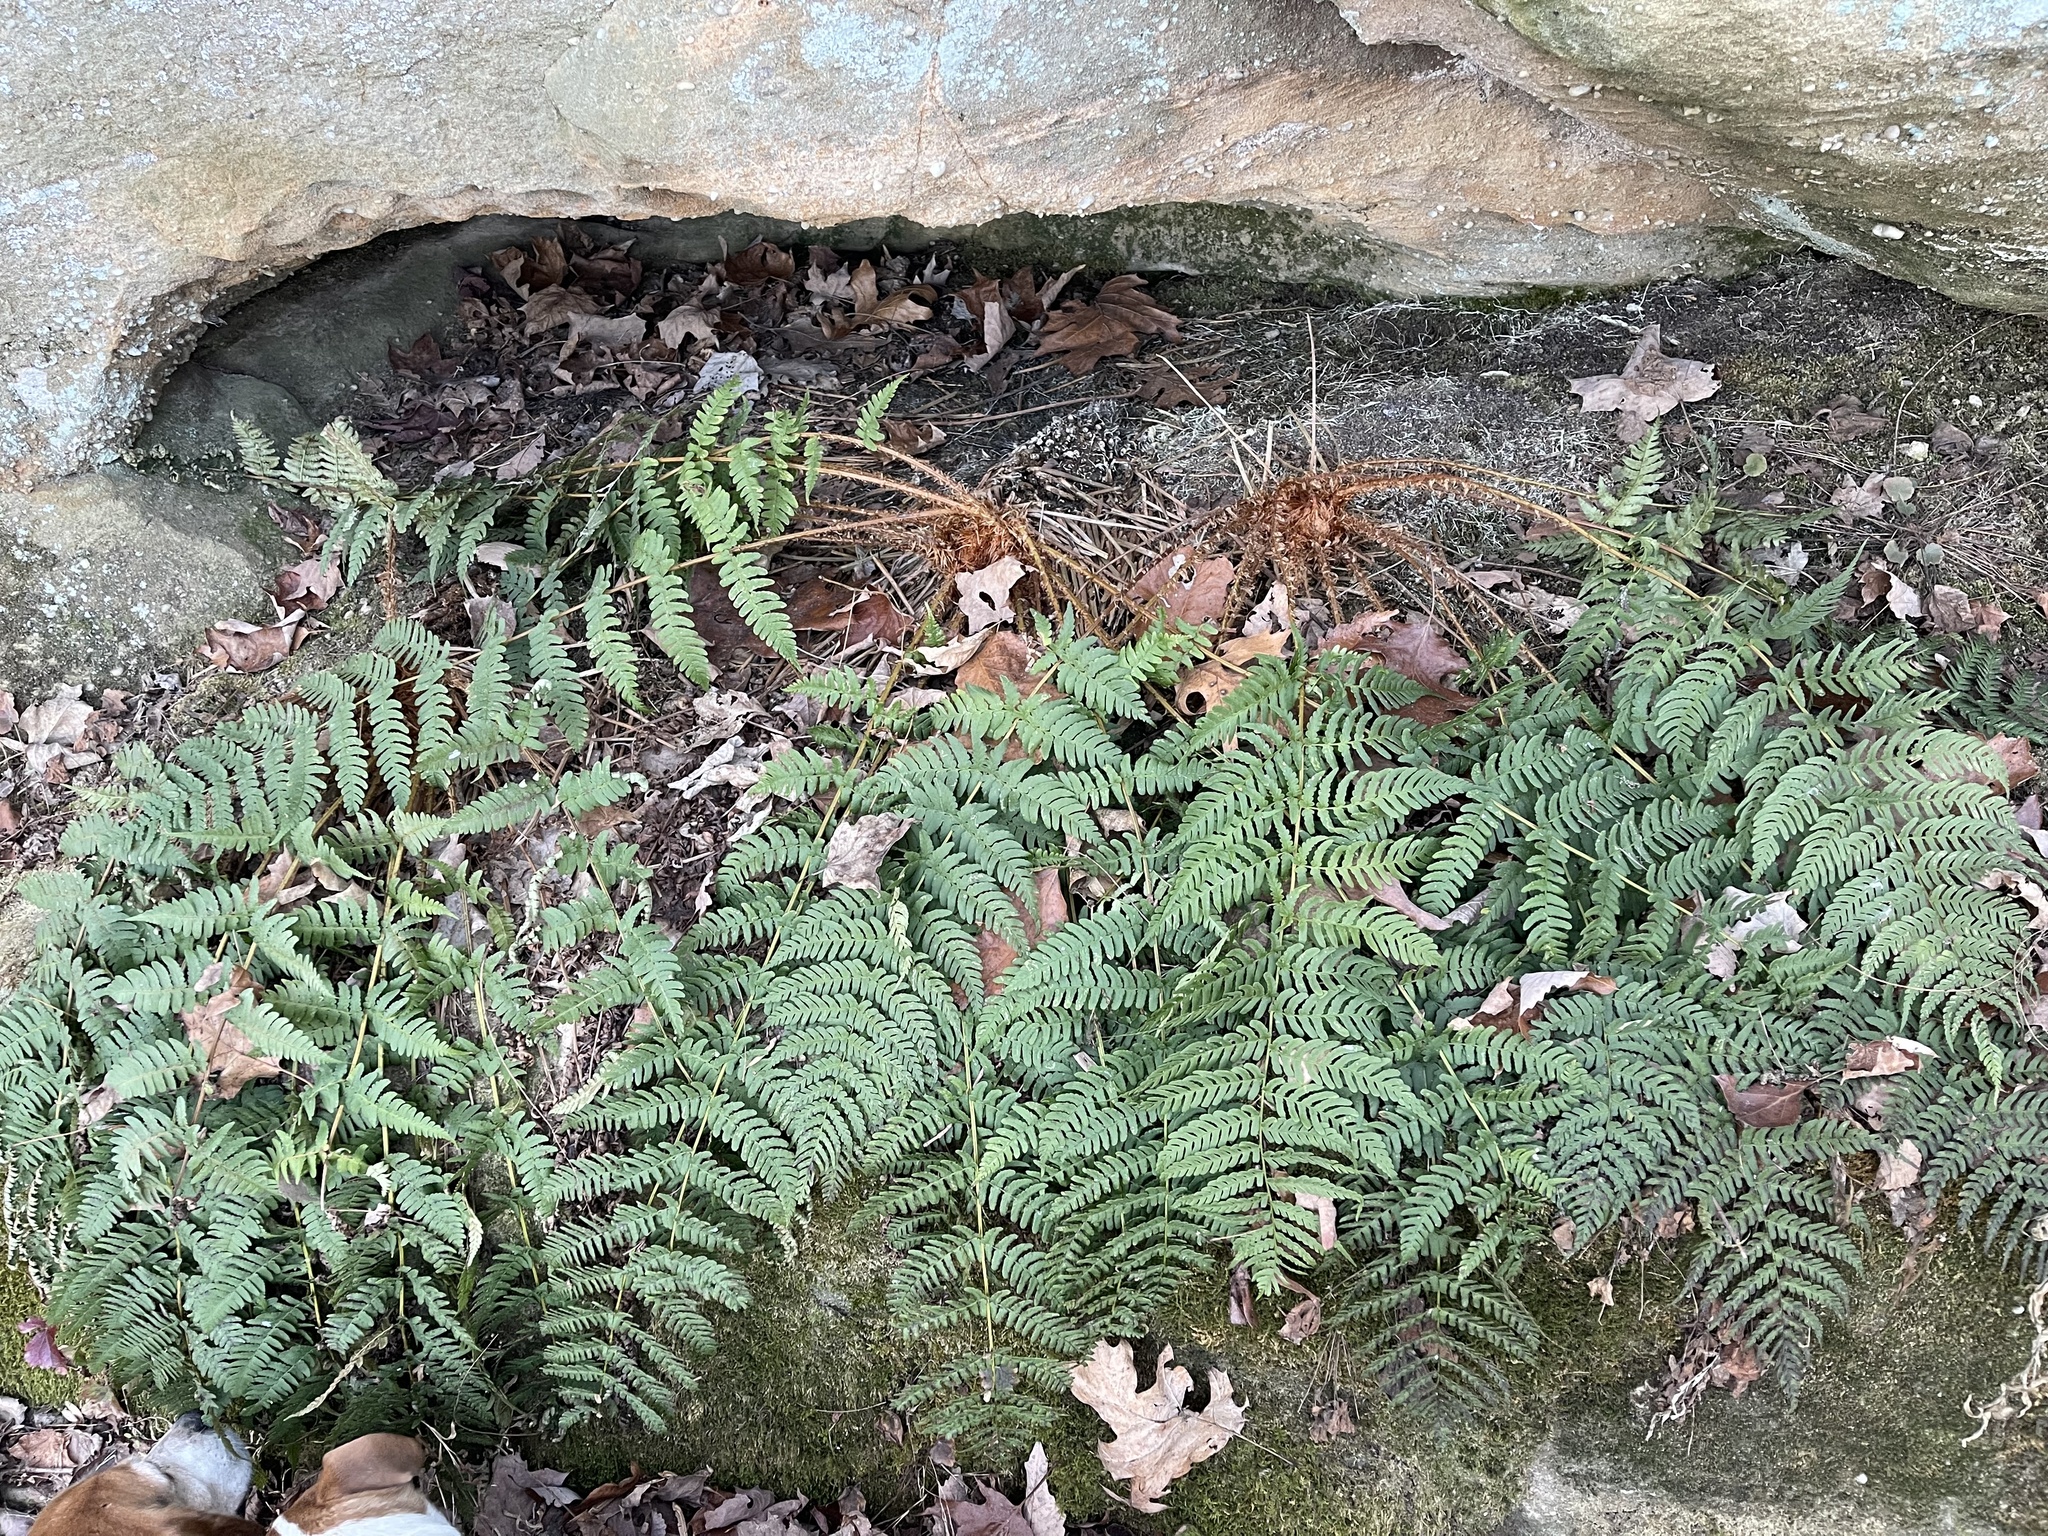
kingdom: Plantae
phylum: Tracheophyta
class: Polypodiopsida
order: Polypodiales
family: Dryopteridaceae
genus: Dryopteris
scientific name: Dryopteris marginalis
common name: Marginal wood fern
